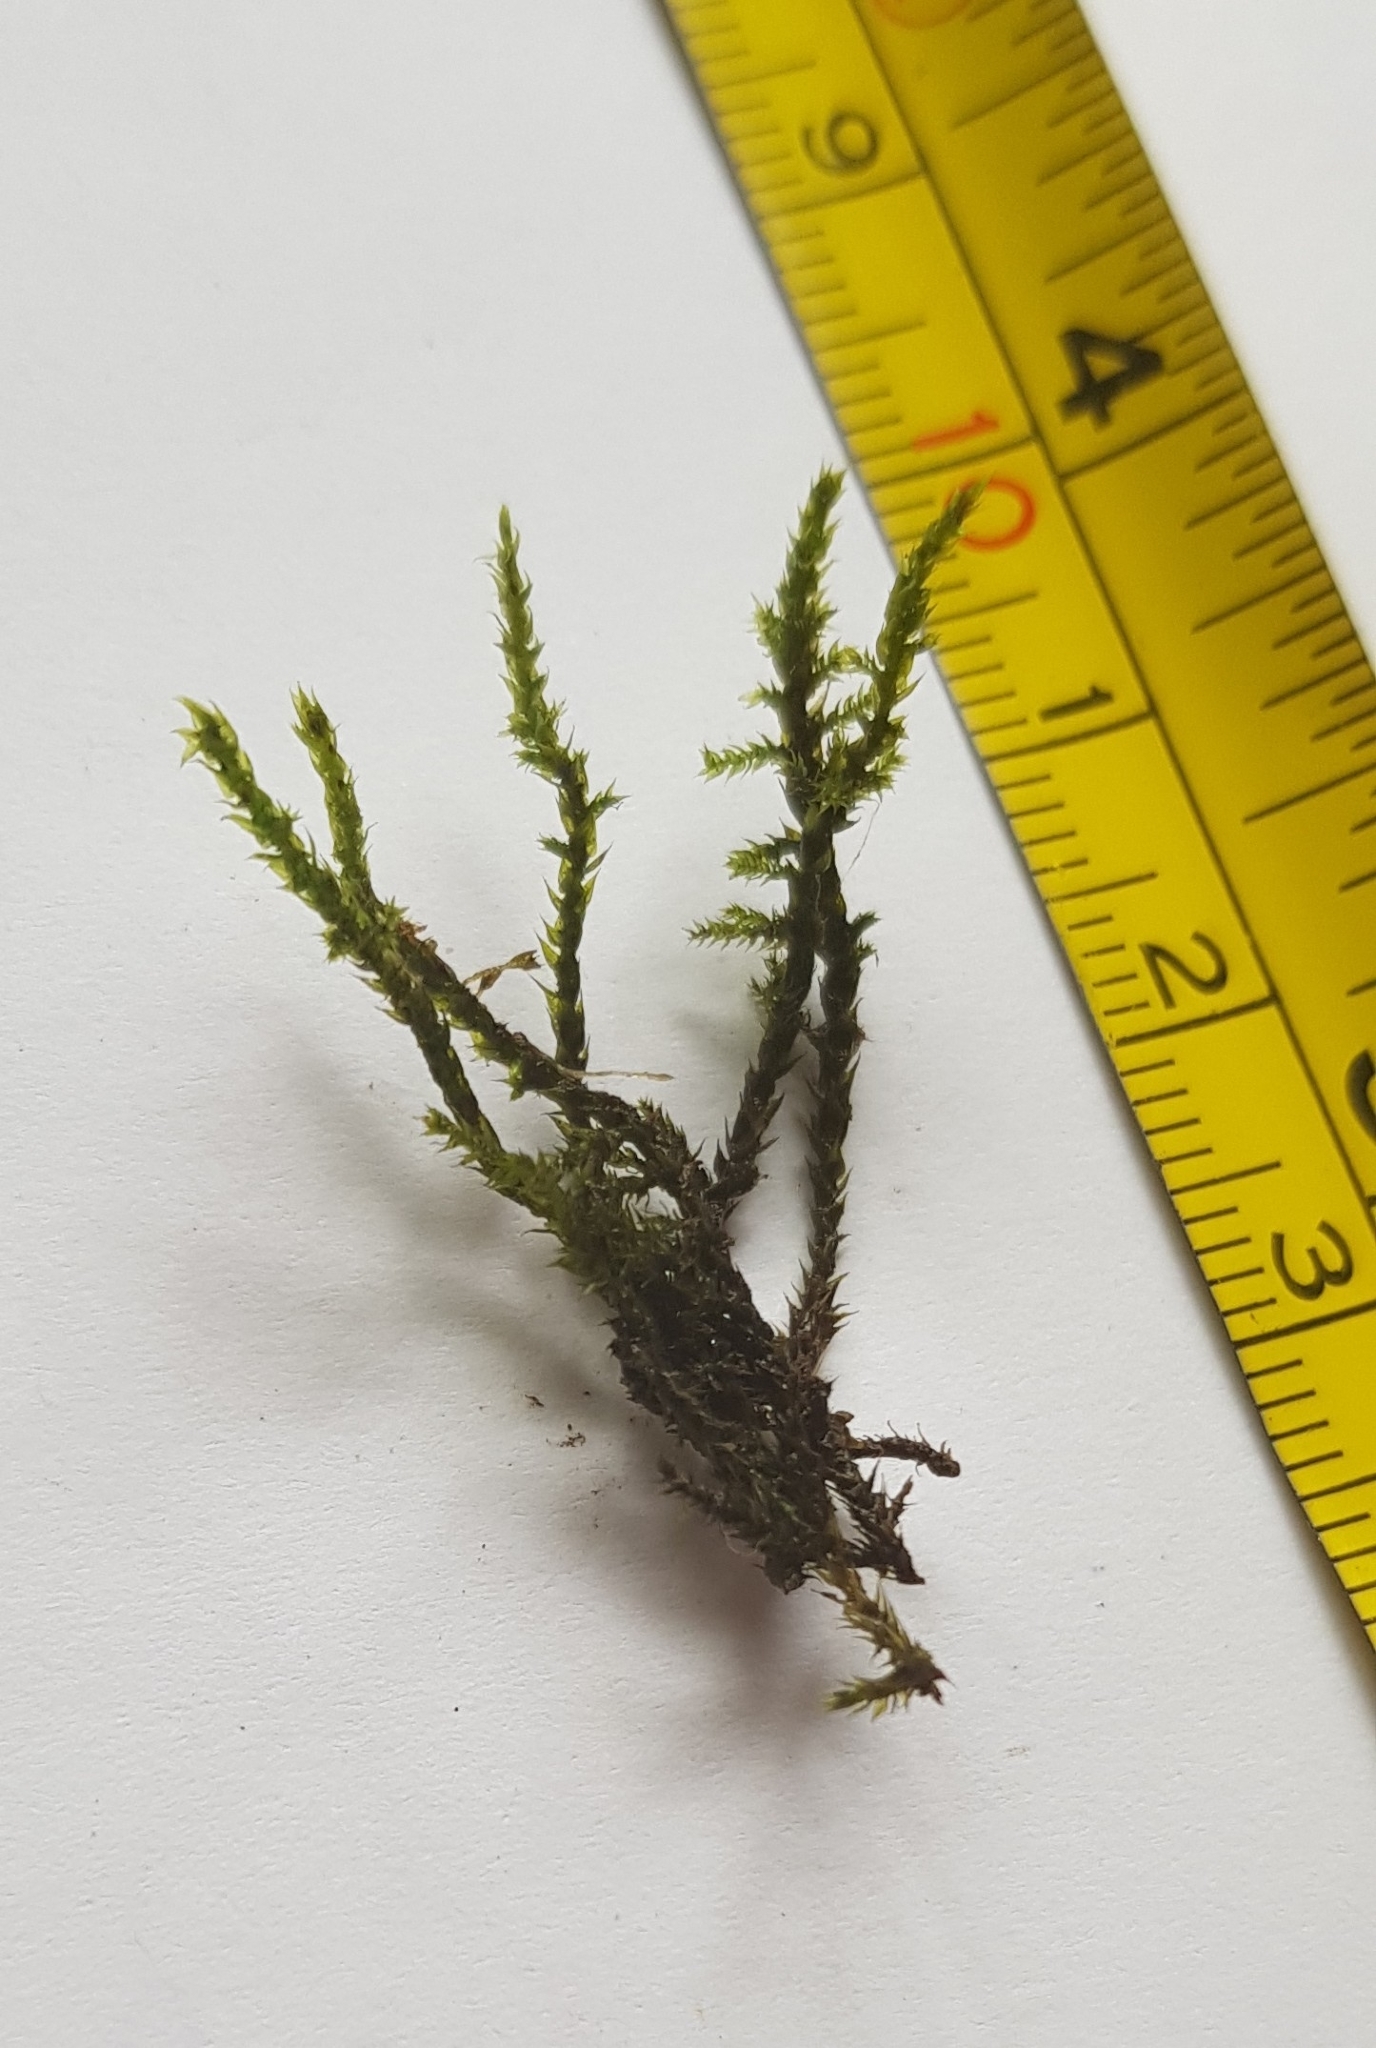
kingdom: Plantae
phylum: Bryophyta
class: Bryopsida
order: Hypnales
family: Amblystegiaceae
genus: Cratoneuron
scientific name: Cratoneuron filicinum
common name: Fern-leaved hook moss
